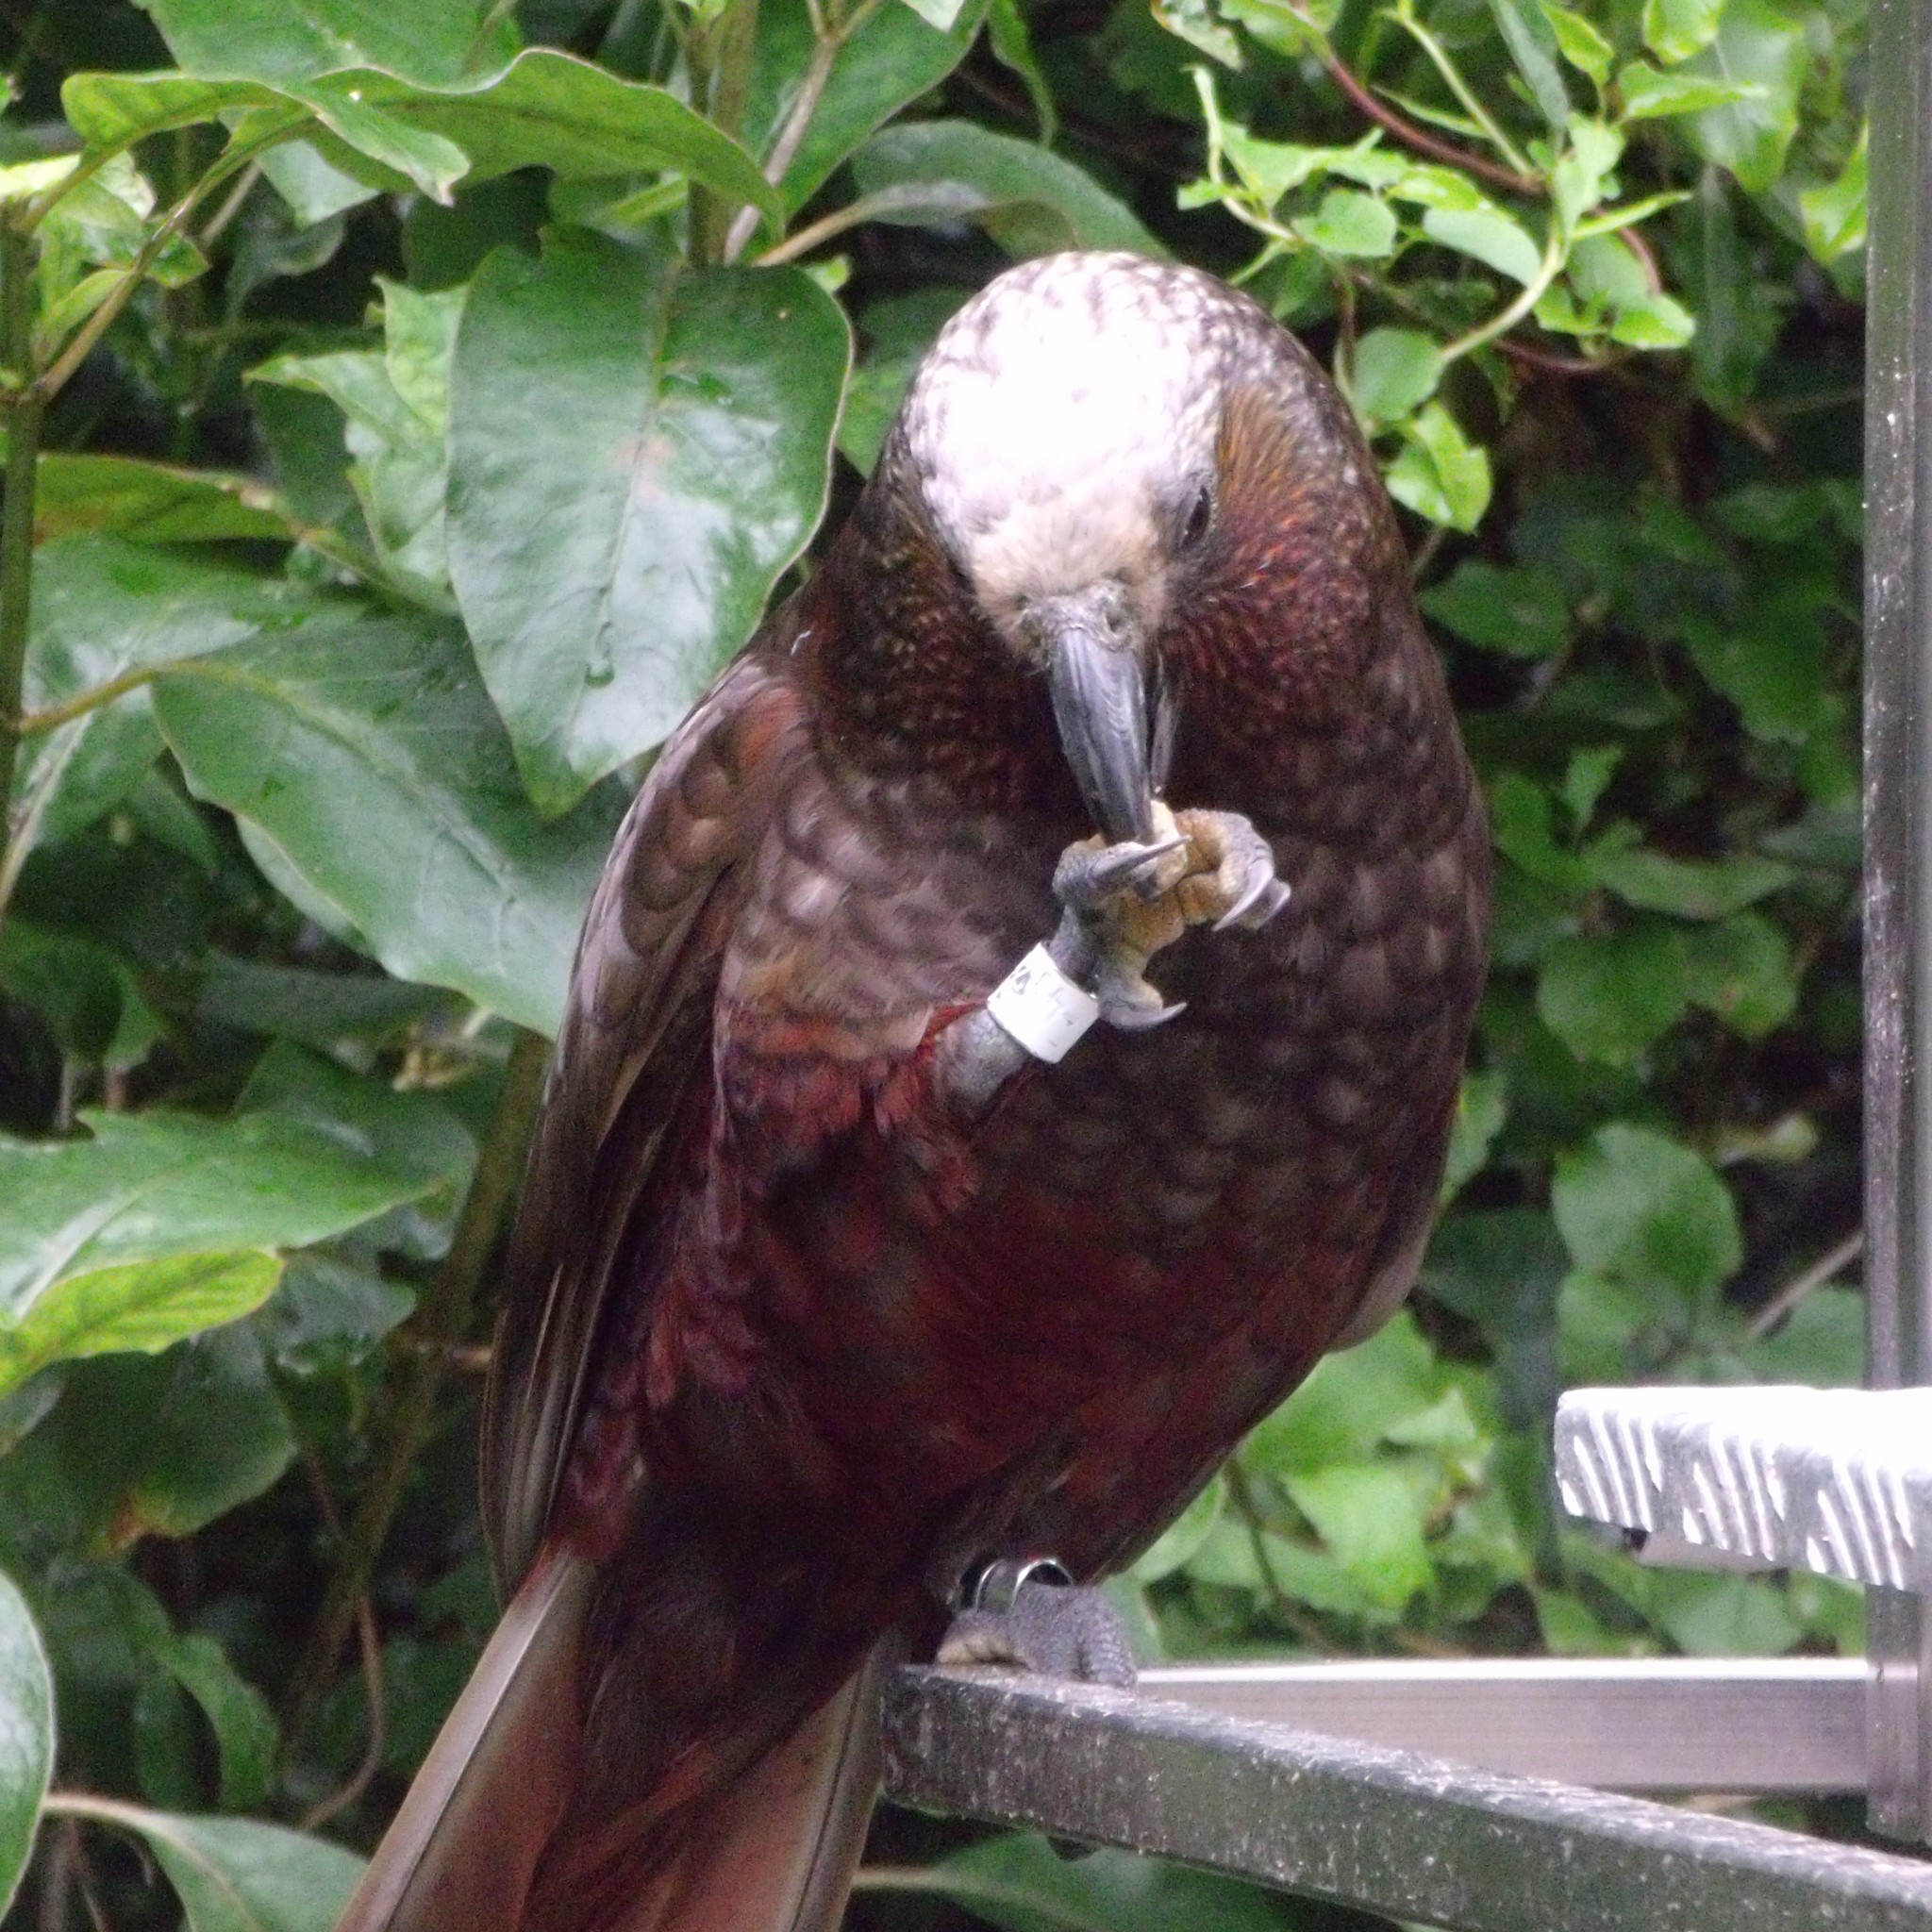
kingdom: Animalia
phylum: Chordata
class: Aves
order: Psittaciformes
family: Psittacidae
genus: Nestor
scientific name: Nestor meridionalis
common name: New zealand kaka
